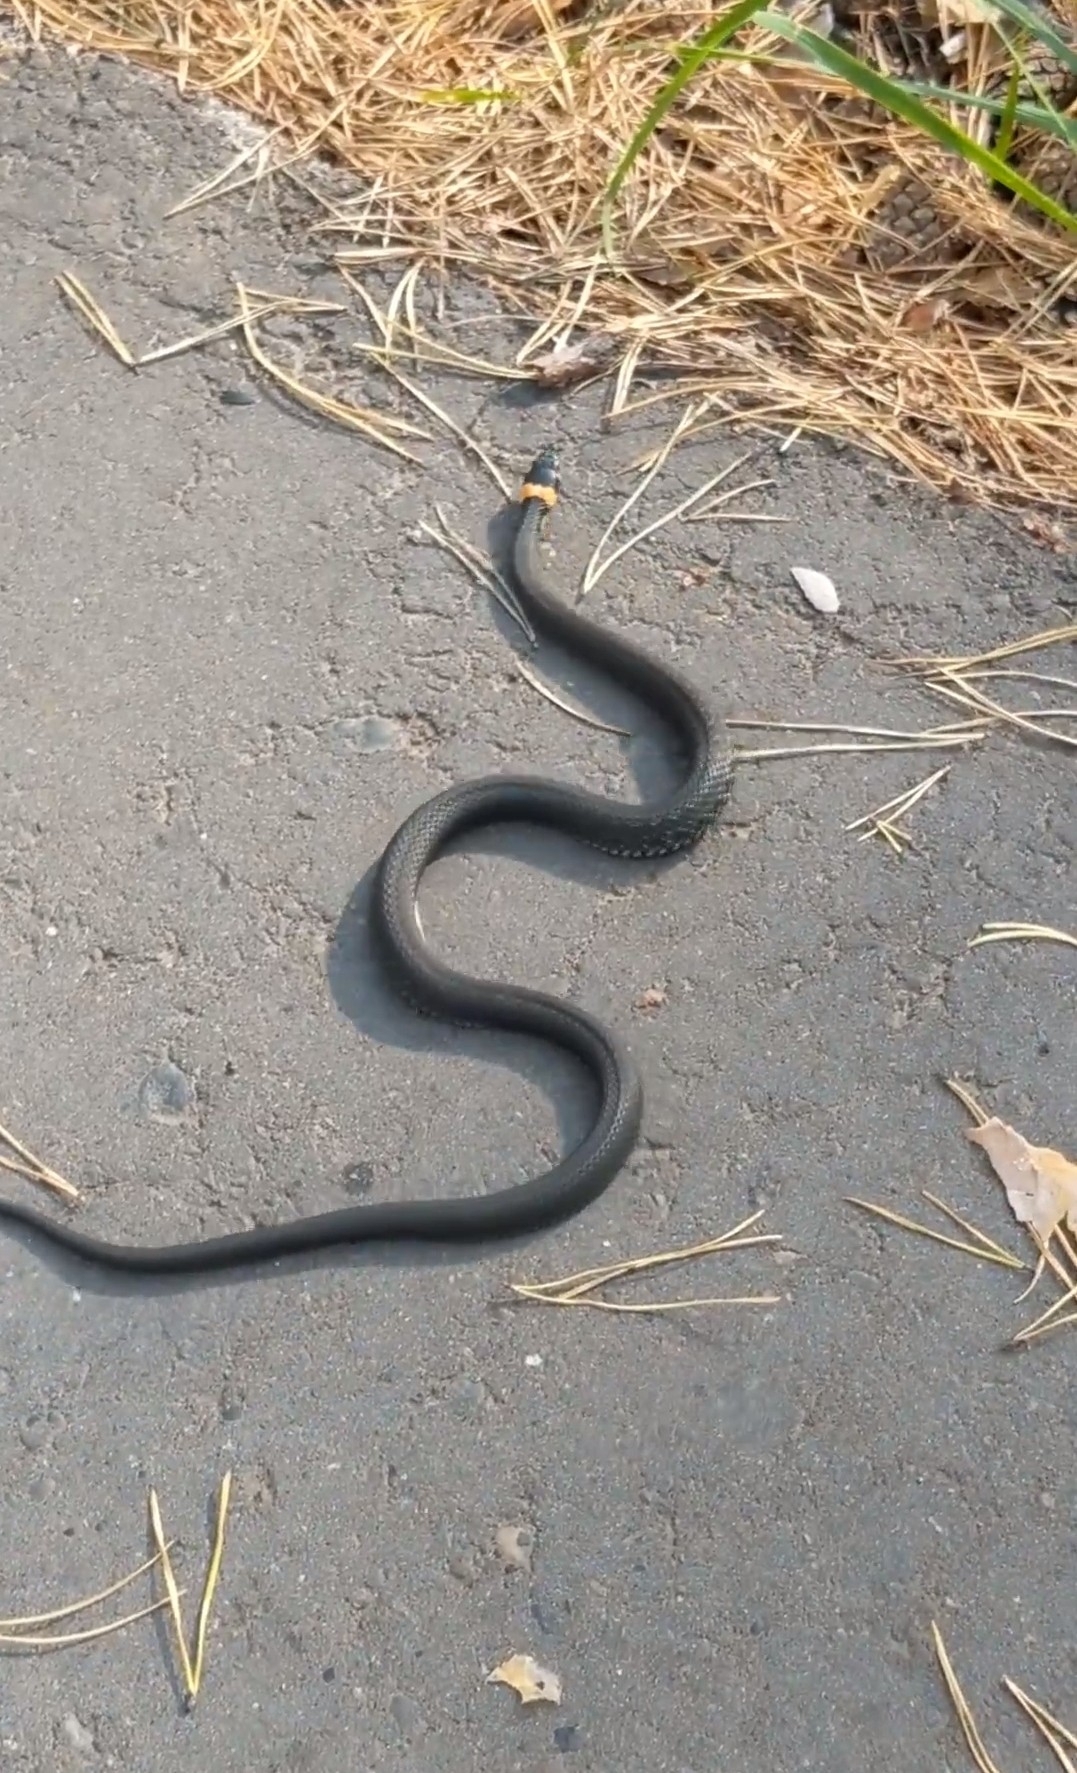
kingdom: Animalia
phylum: Chordata
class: Squamata
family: Colubridae
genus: Natrix
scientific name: Natrix natrix
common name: Grass snake
